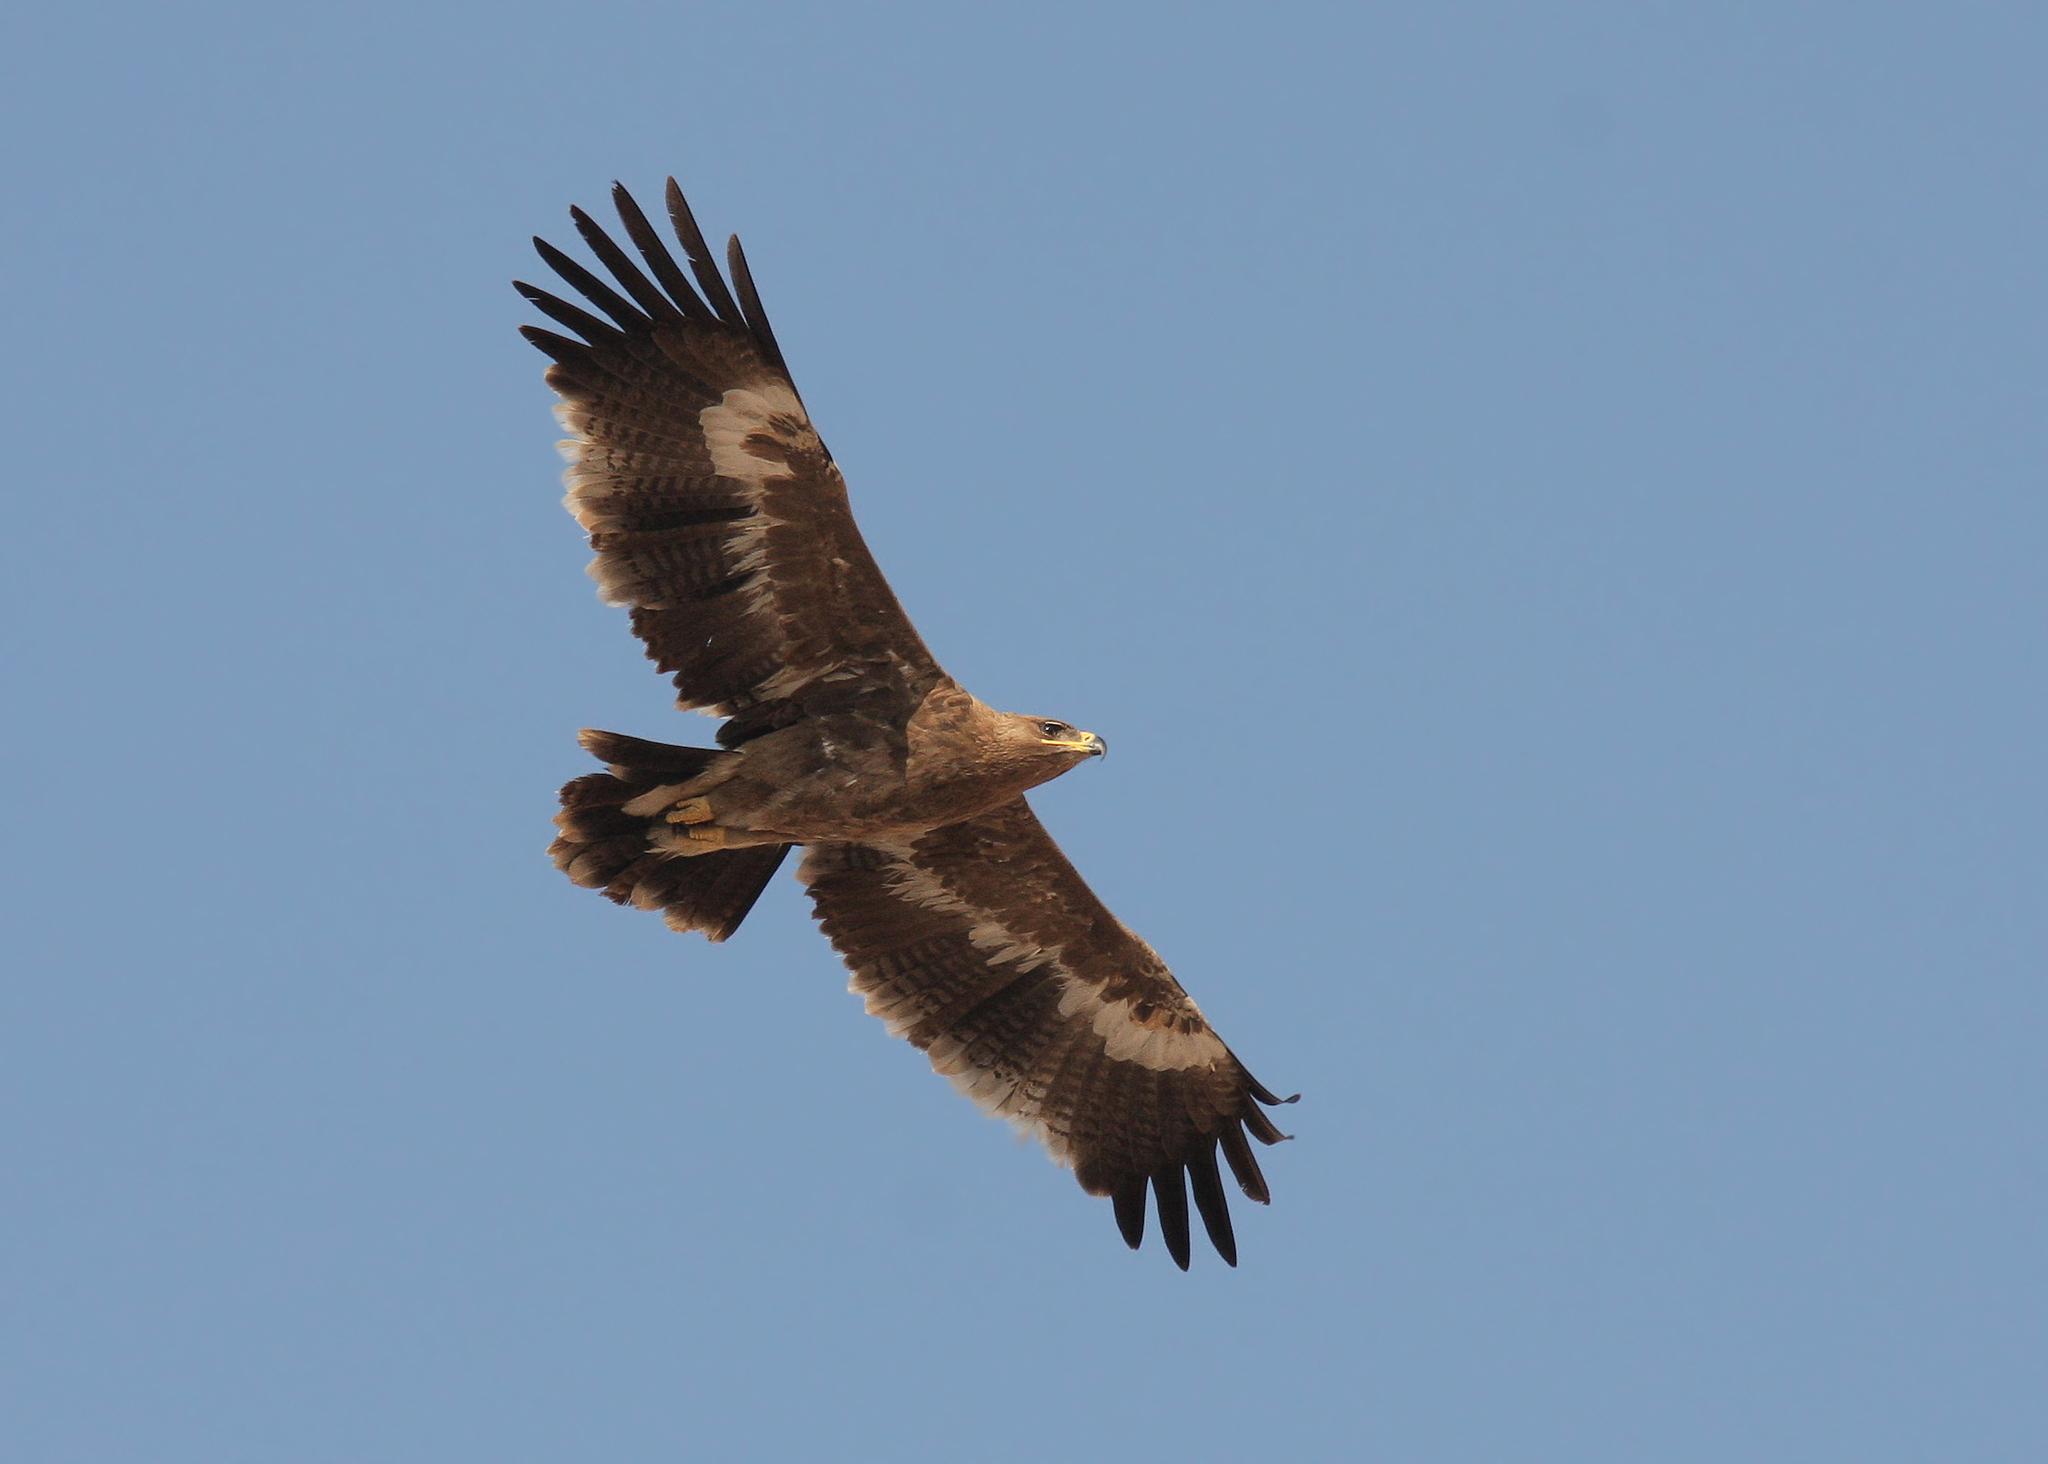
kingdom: Animalia
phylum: Chordata
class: Aves
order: Accipitriformes
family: Accipitridae
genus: Aquila
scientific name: Aquila nipalensis
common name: Steppe eagle
